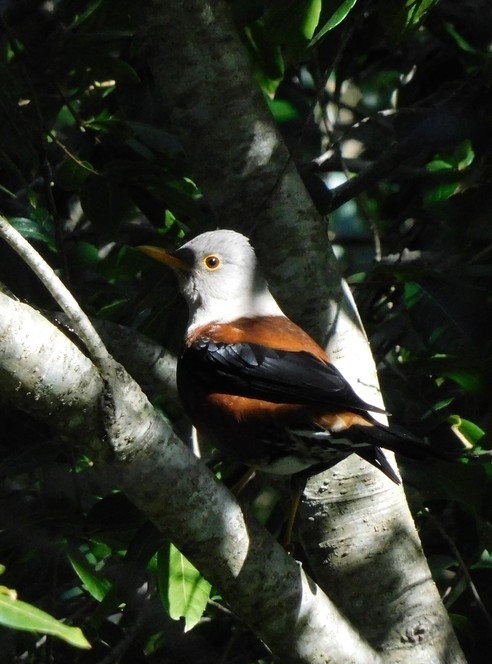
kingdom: Animalia
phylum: Chordata
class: Aves
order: Passeriformes
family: Turdidae
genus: Turdus
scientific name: Turdus rubrocanus
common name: Chestnut thrush
